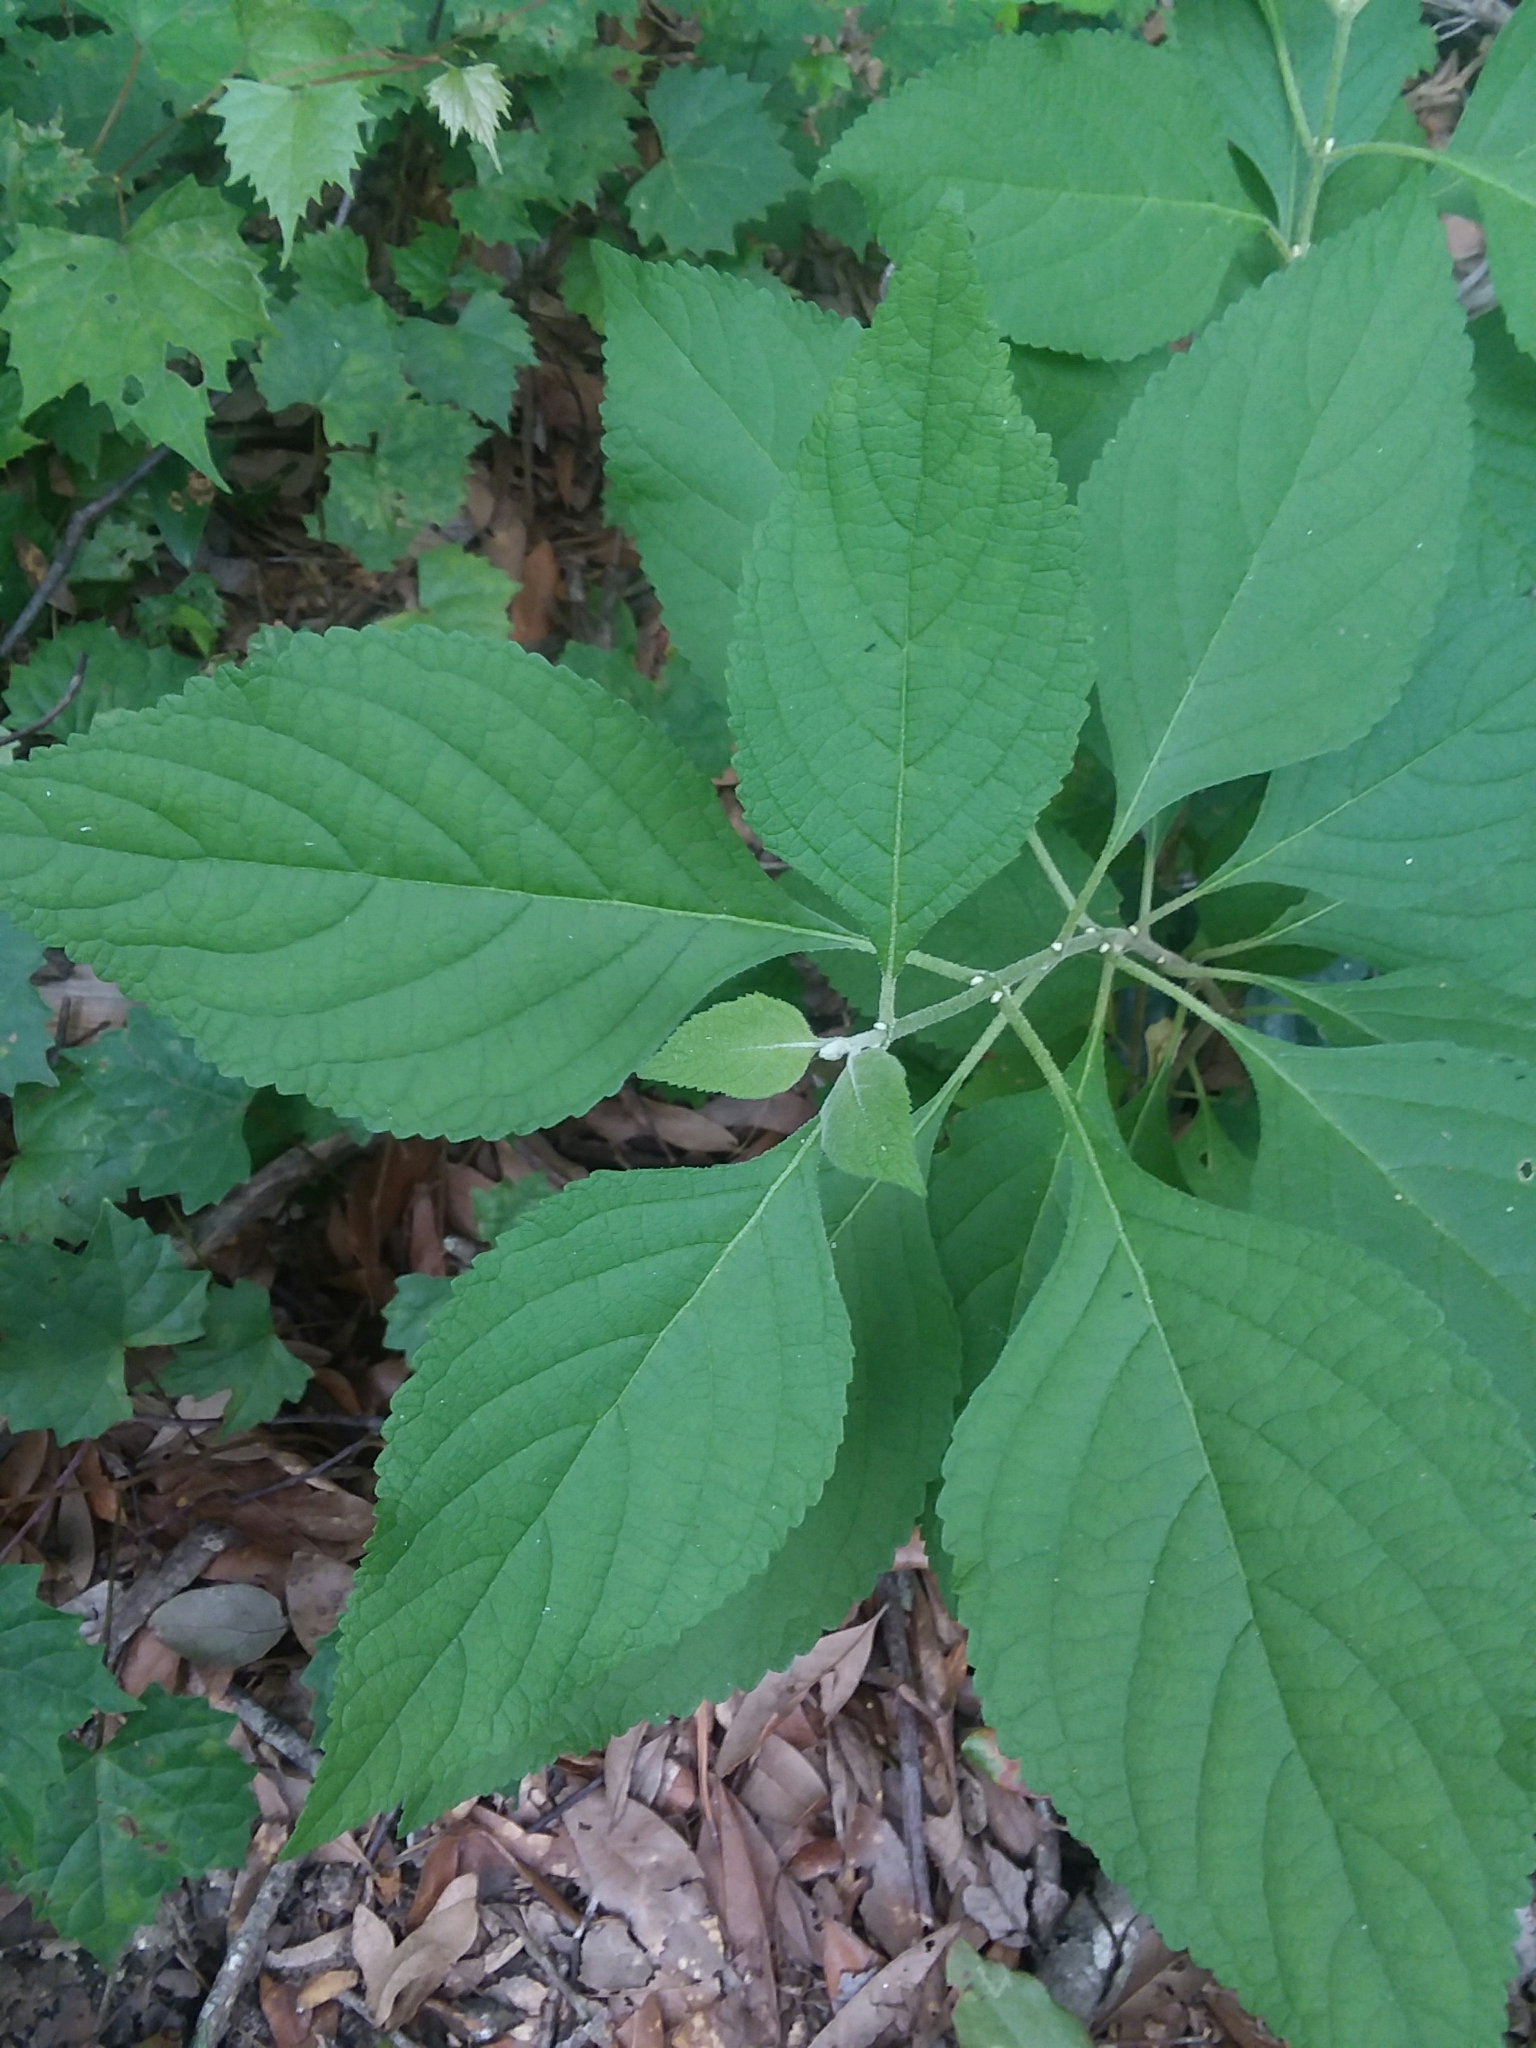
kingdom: Plantae
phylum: Tracheophyta
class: Magnoliopsida
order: Lamiales
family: Lamiaceae
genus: Callicarpa
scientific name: Callicarpa americana
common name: American beautyberry
